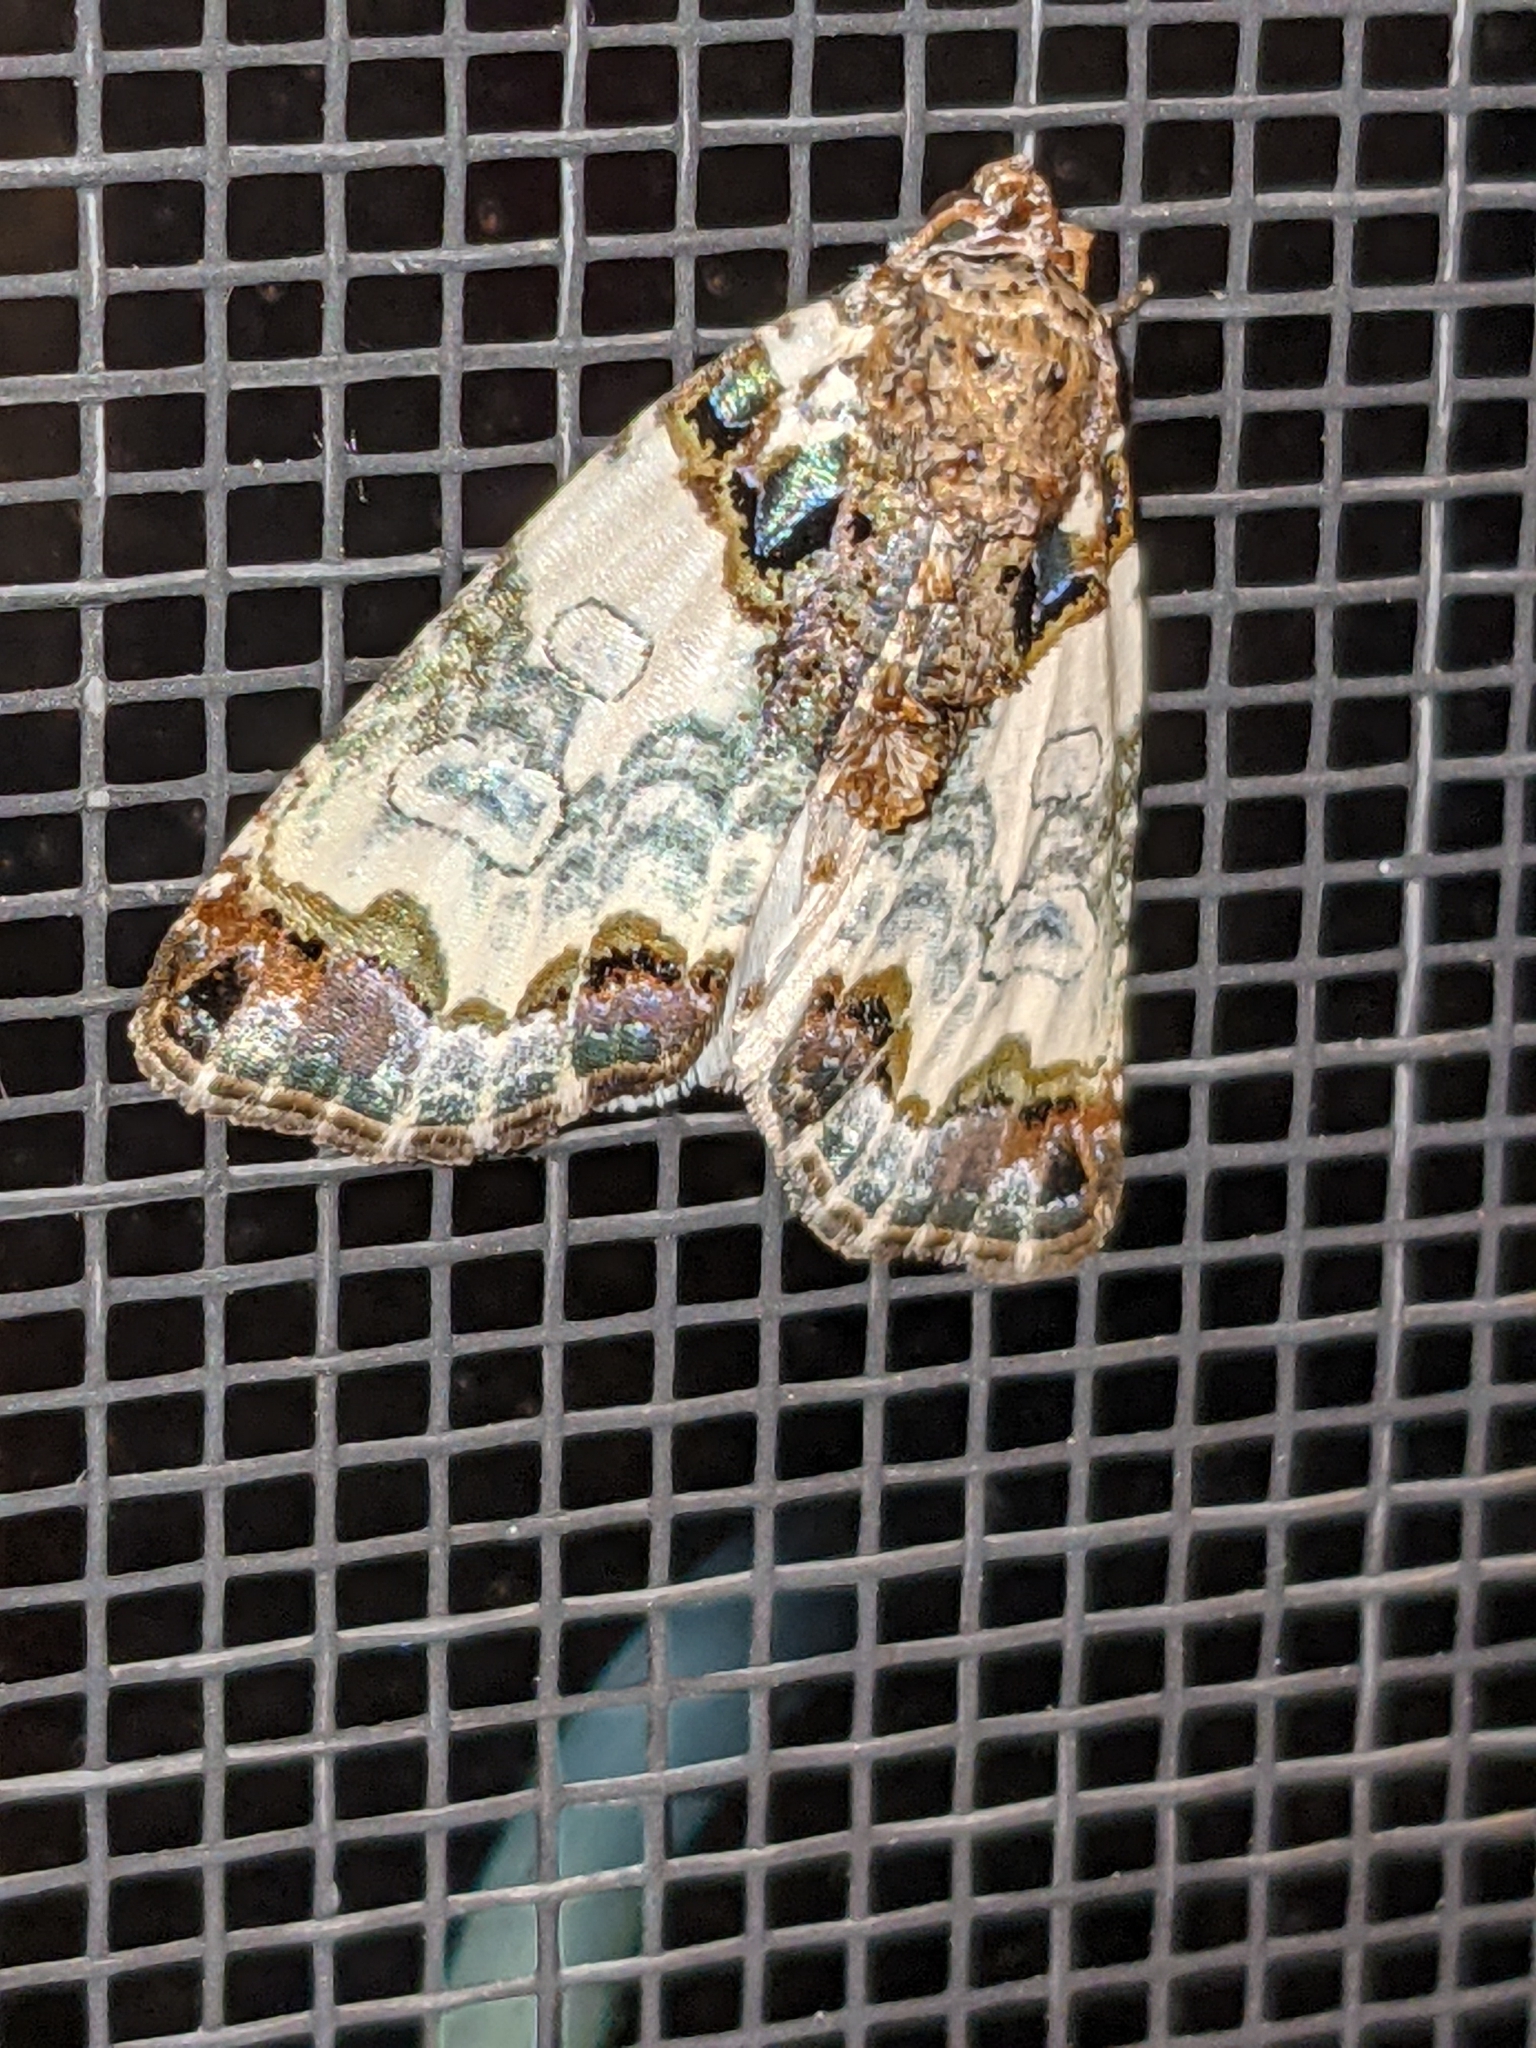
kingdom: Animalia
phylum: Arthropoda
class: Insecta
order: Lepidoptera
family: Noctuidae
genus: Cerma
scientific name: Cerma cerintha
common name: Tufted bird-dropping moth
